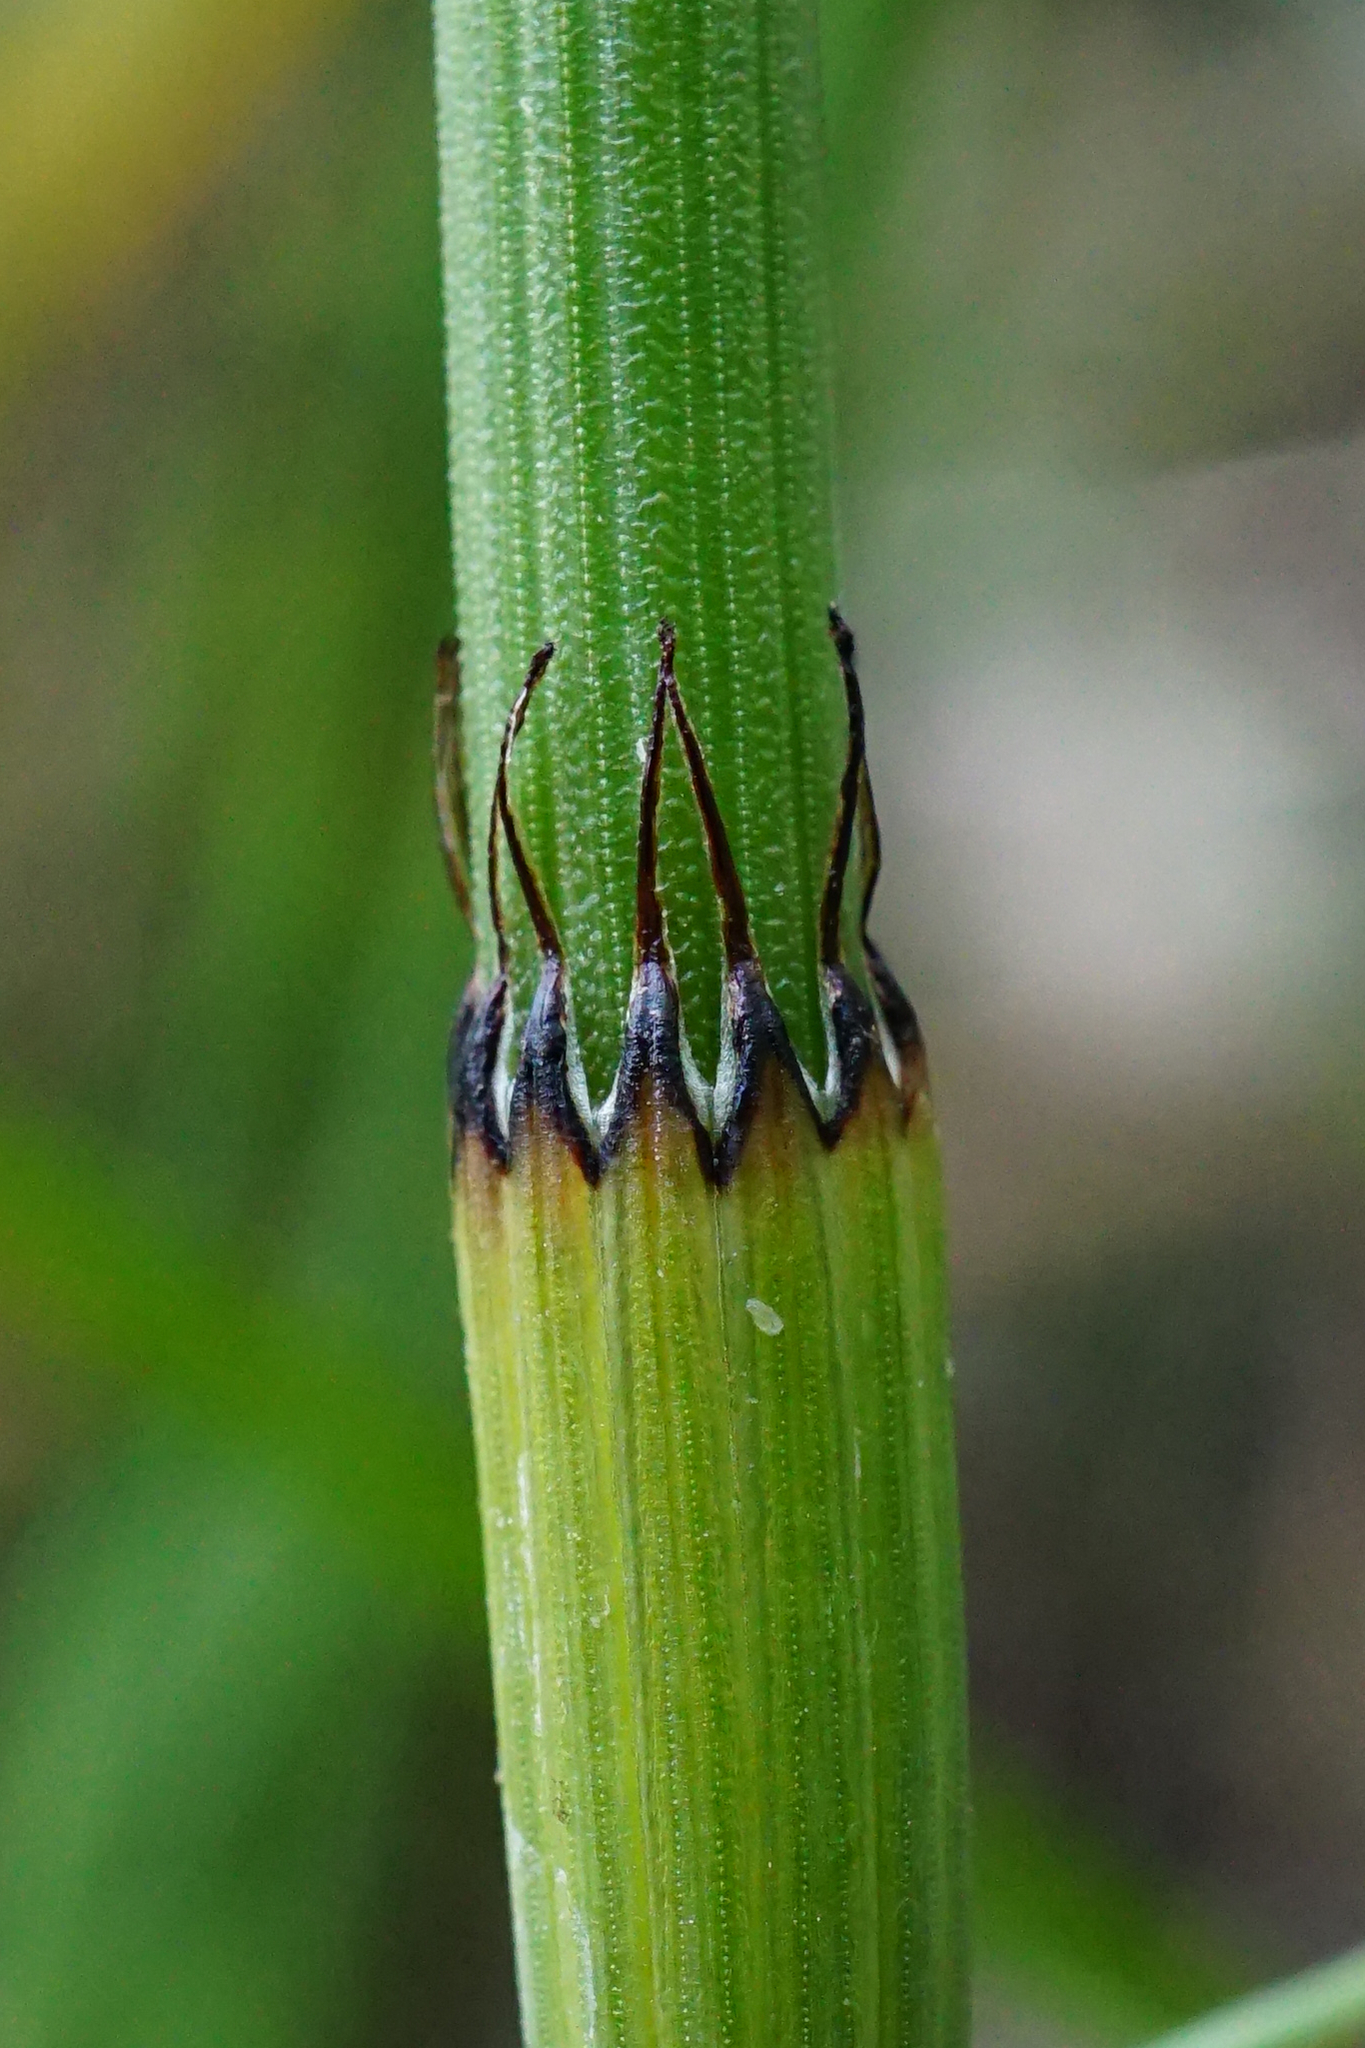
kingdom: Plantae
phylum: Tracheophyta
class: Polypodiopsida
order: Equisetales
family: Equisetaceae
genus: Equisetum
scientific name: Equisetum ramosissimum
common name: Branched horsetail
